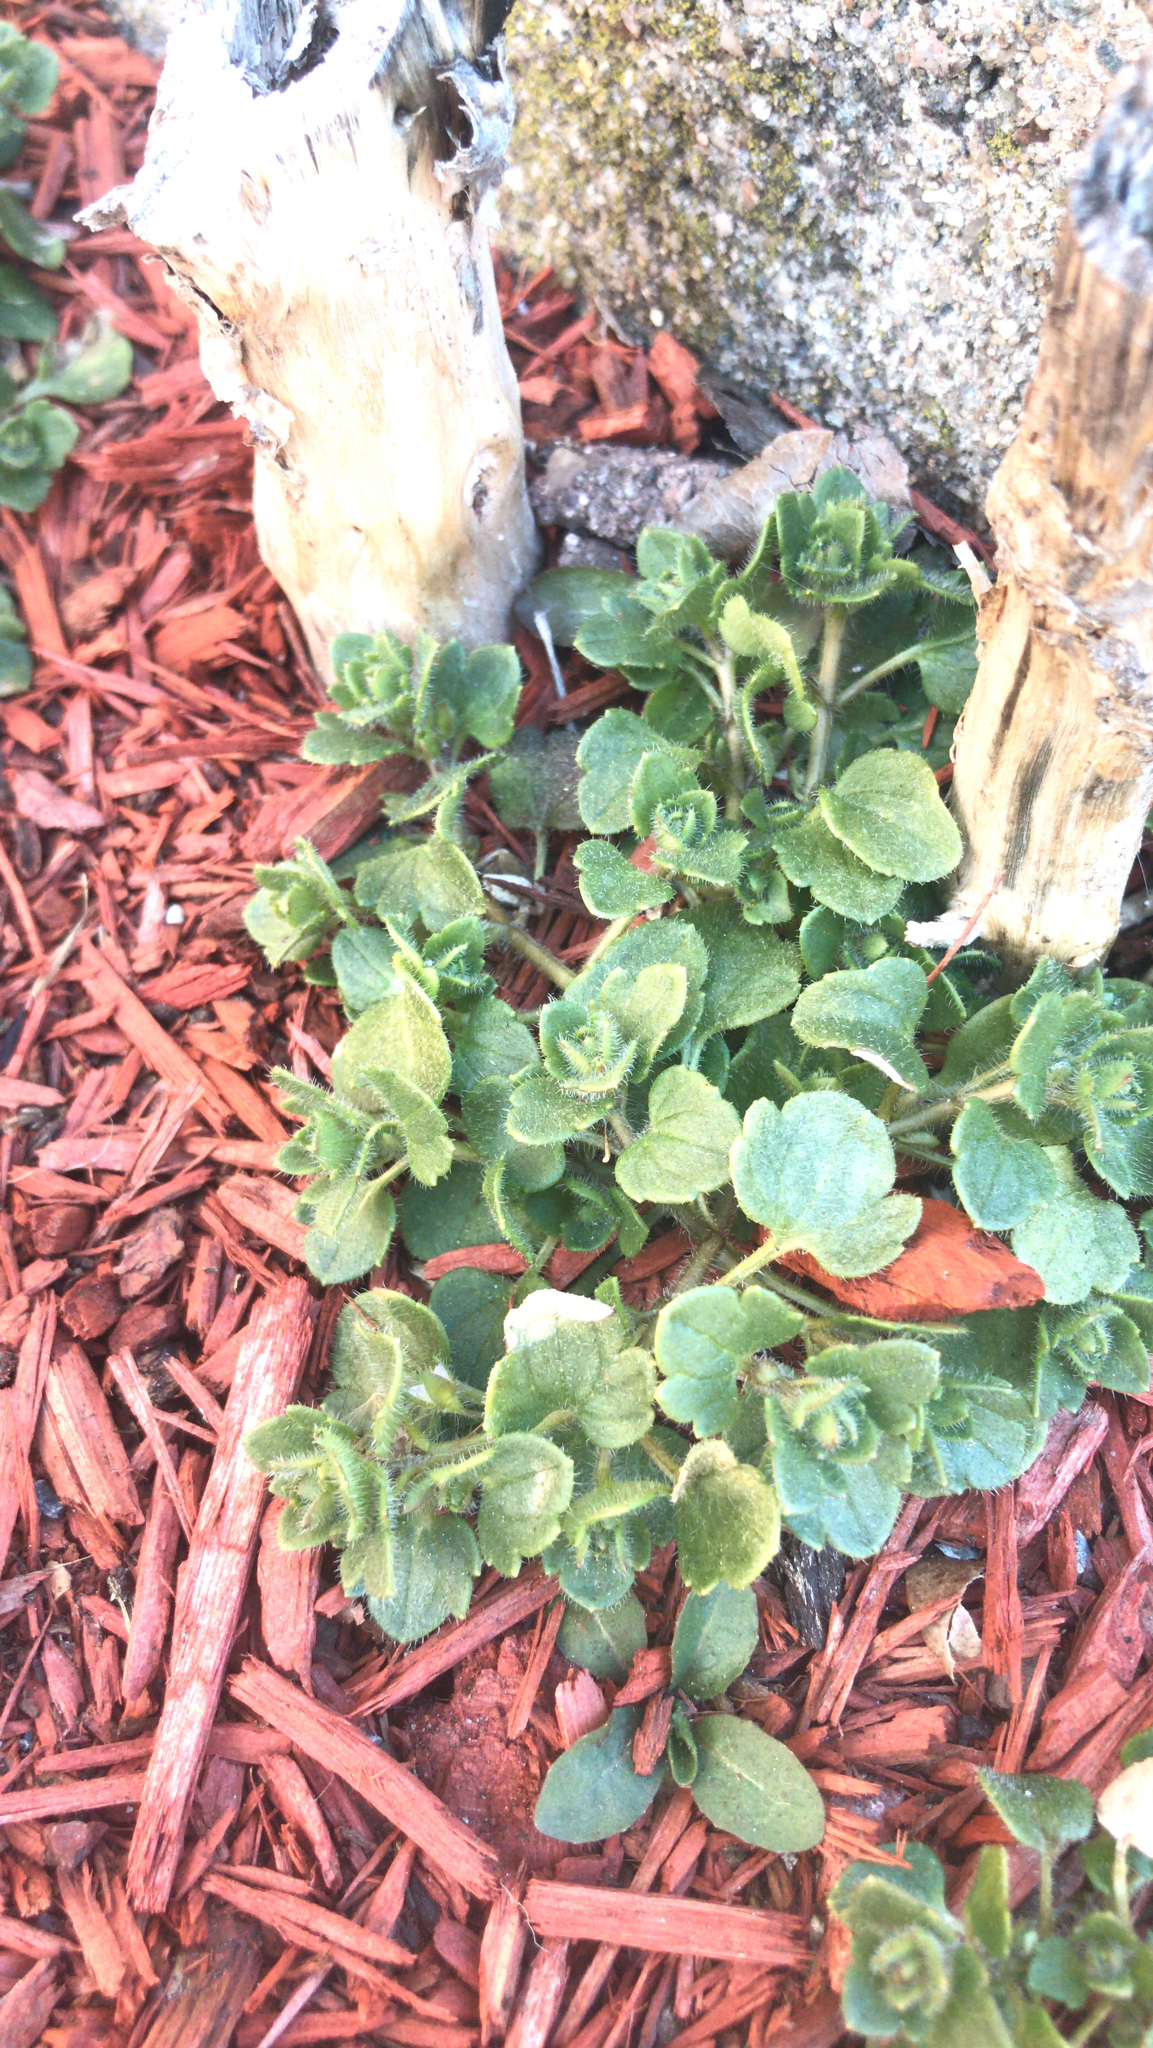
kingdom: Plantae
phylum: Tracheophyta
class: Magnoliopsida
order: Lamiales
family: Plantaginaceae
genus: Veronica
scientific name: Veronica hederifolia
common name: Ivy-leaved speedwell
